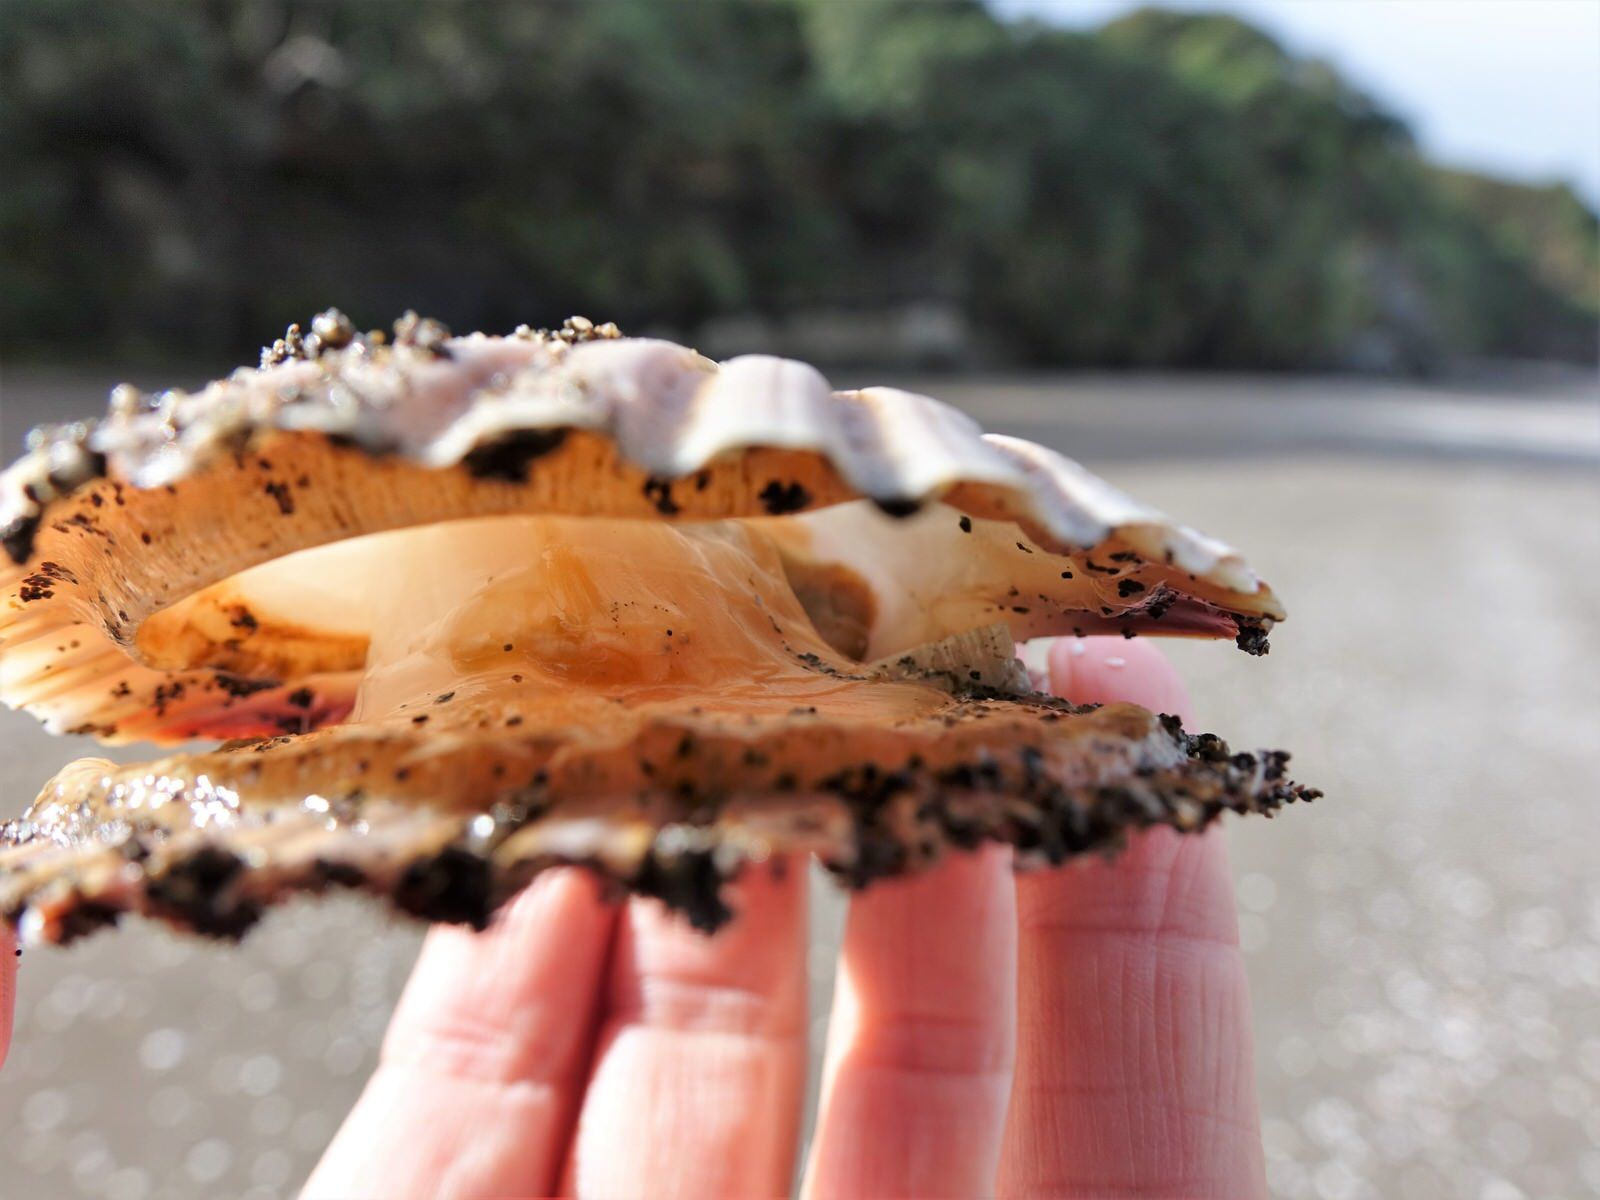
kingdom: Animalia
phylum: Mollusca
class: Bivalvia
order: Pectinida
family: Pectinidae
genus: Pecten
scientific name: Pecten novaezelandiae
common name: New zealand scallop
